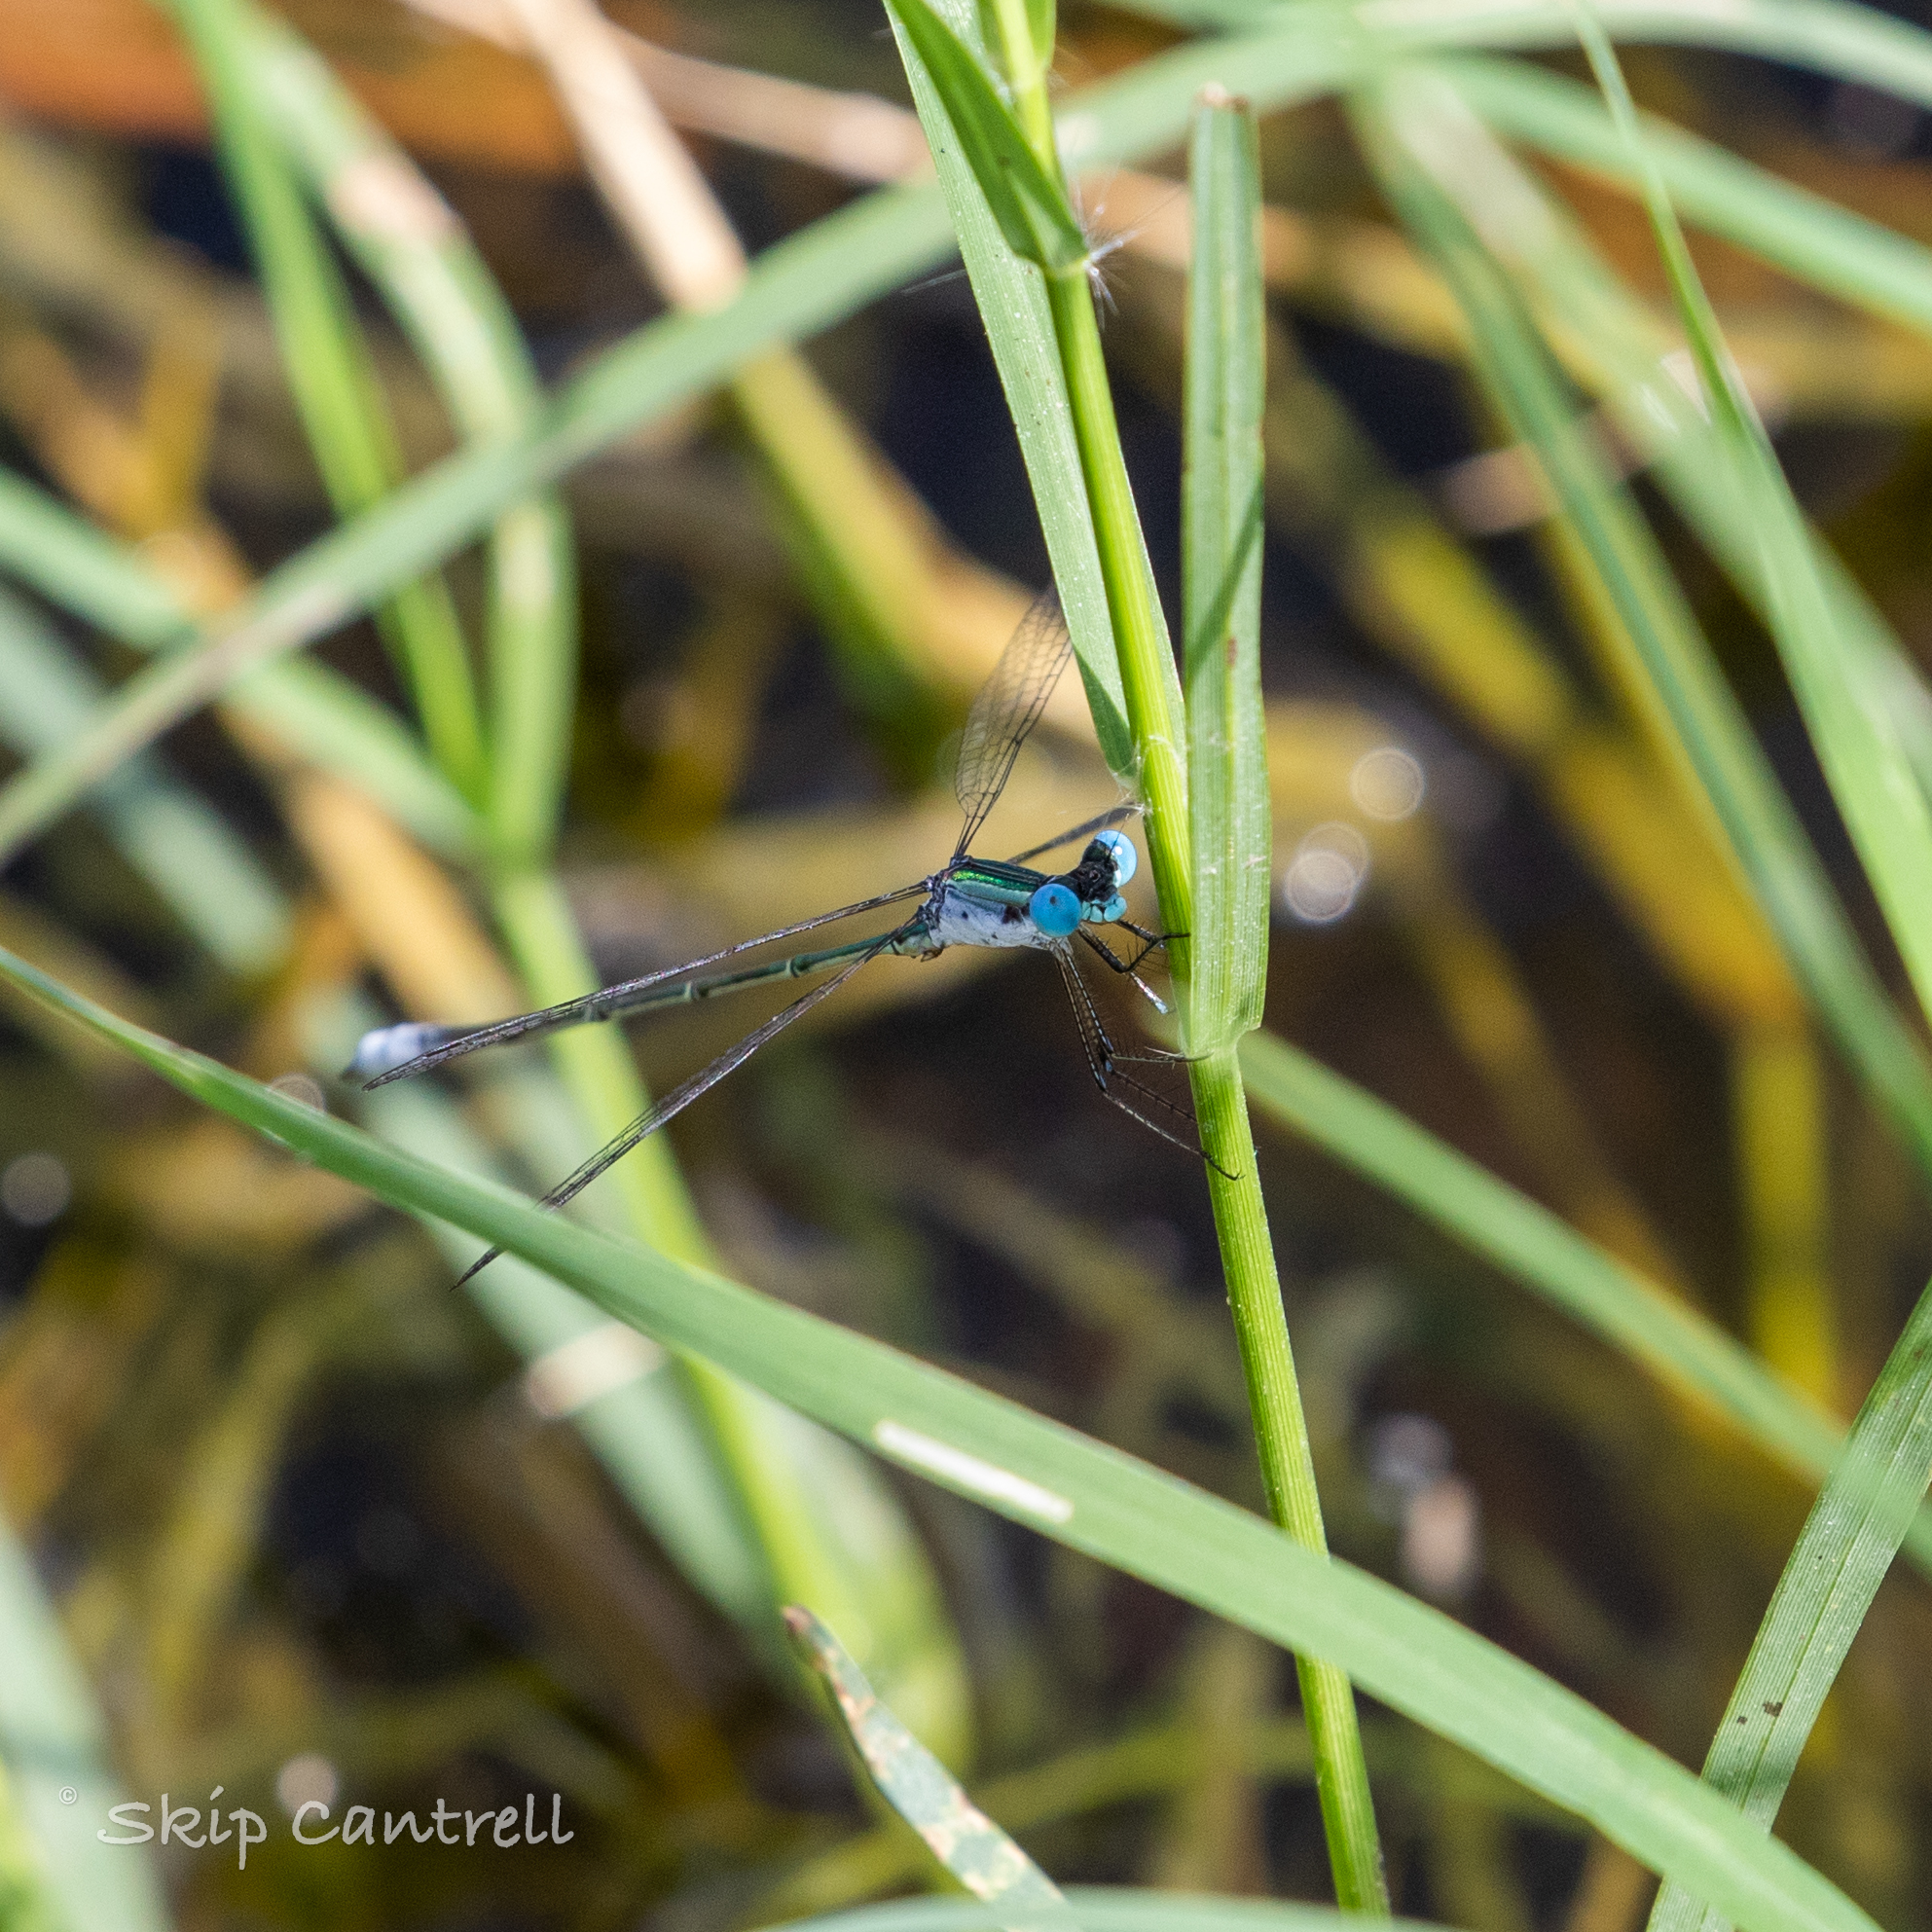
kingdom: Animalia
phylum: Arthropoda
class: Insecta
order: Odonata
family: Lestidae
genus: Lestes
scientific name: Lestes forficula
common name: Rainpool spreadwing
